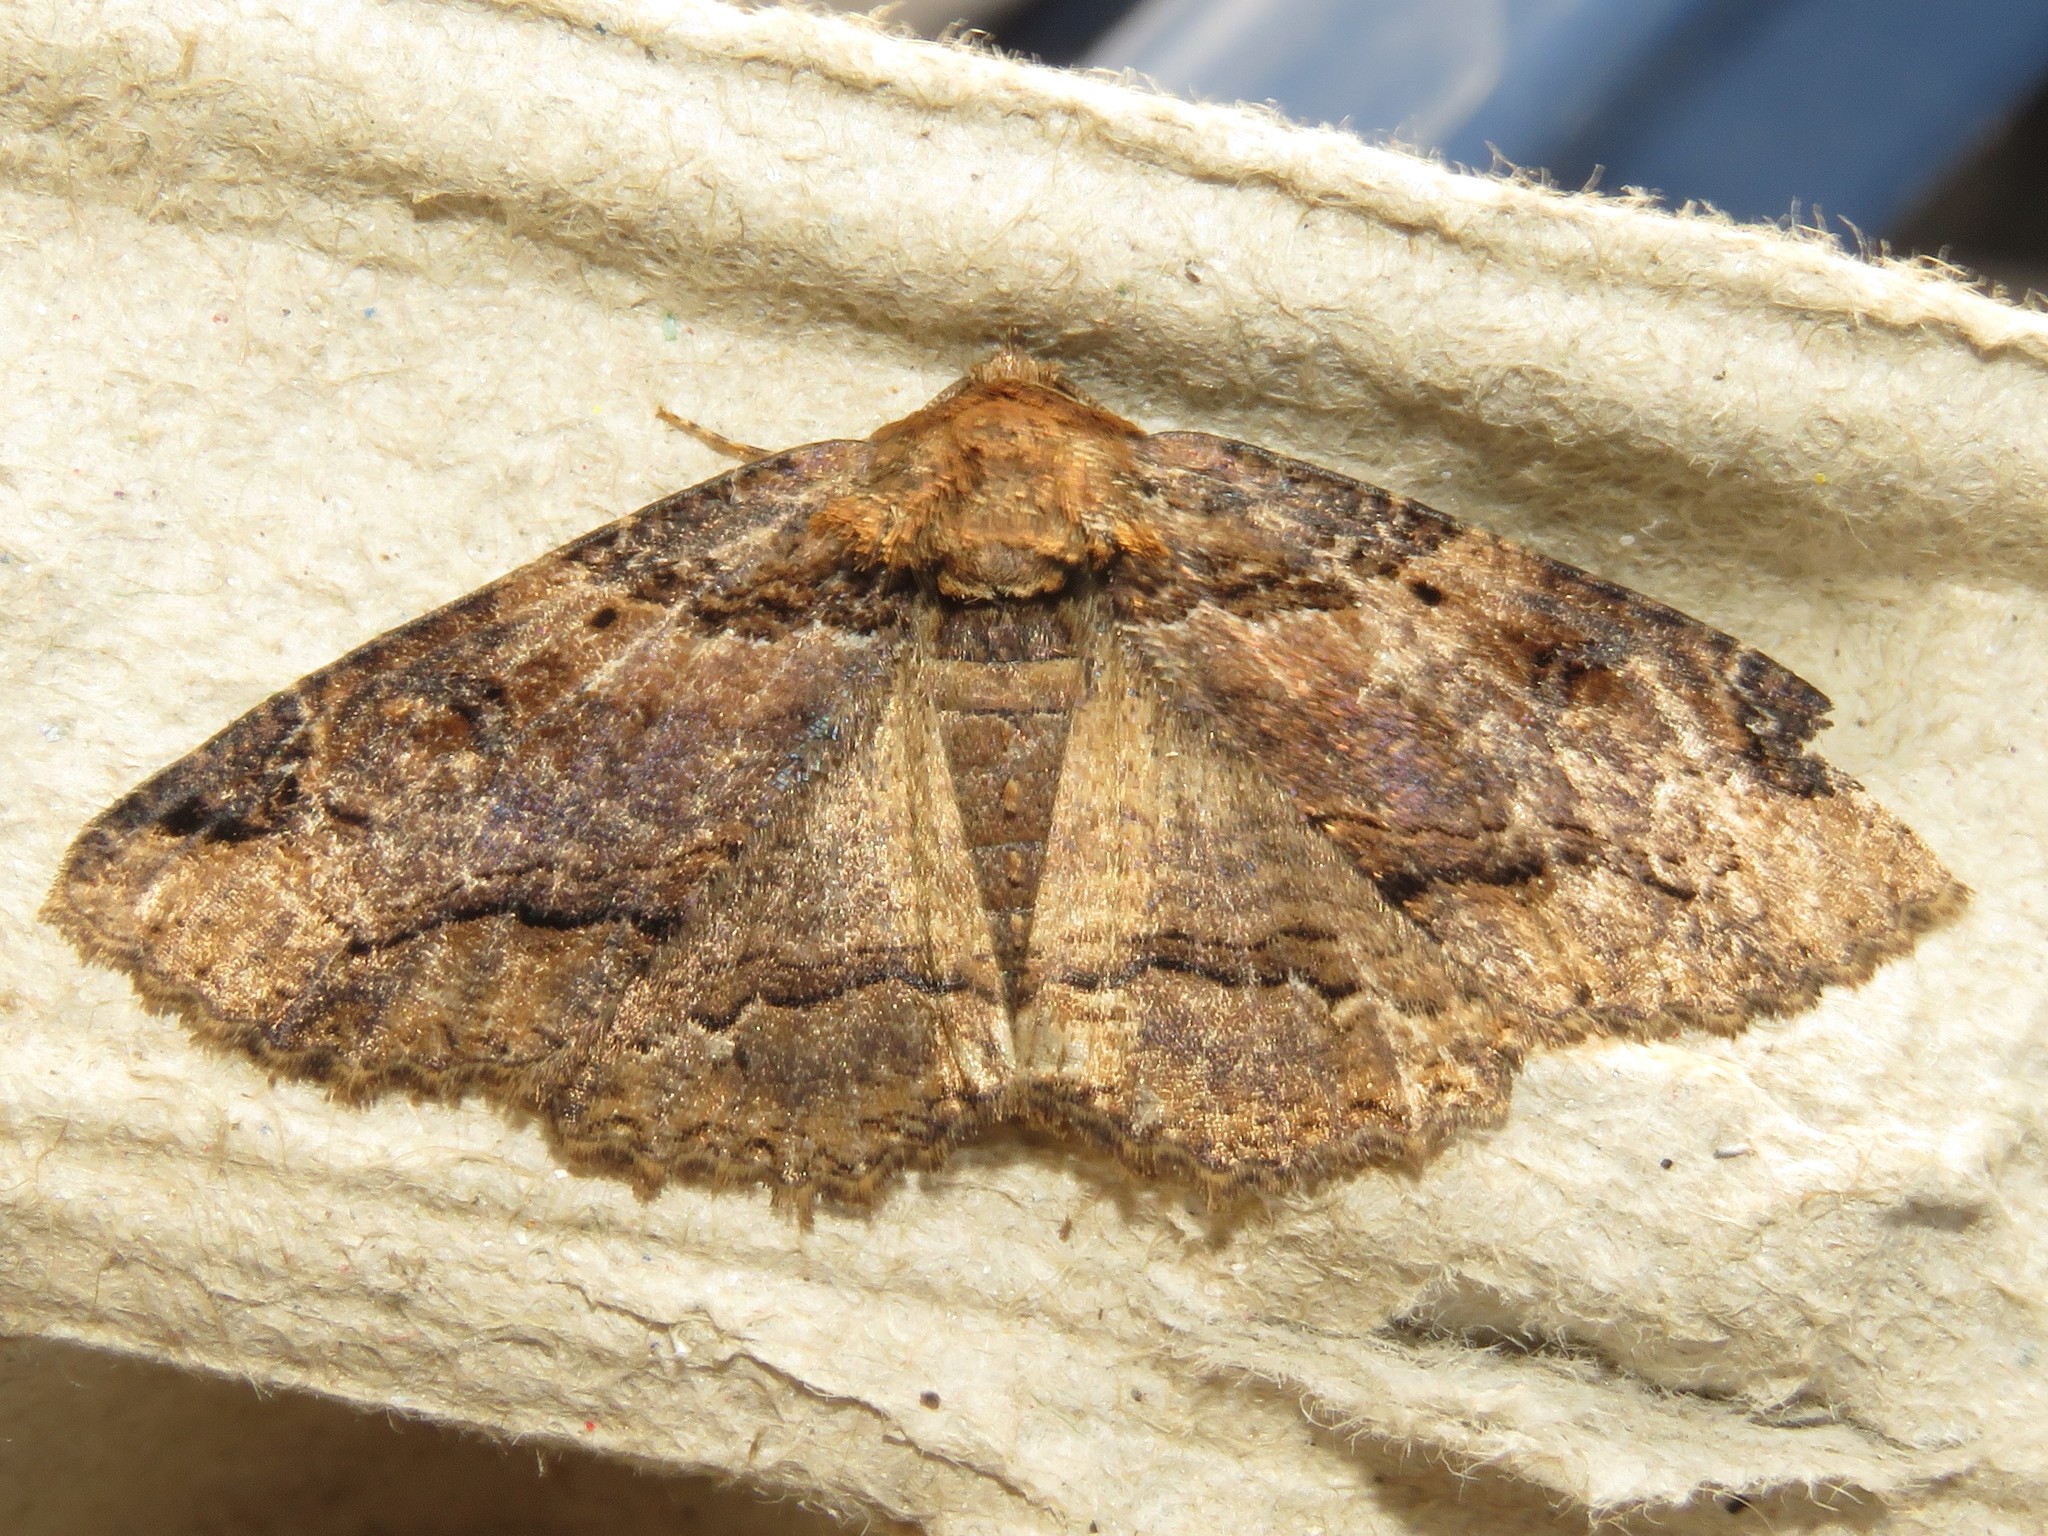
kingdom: Animalia
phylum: Arthropoda
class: Insecta
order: Lepidoptera
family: Erebidae
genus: Zale
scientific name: Zale minerea
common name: Colorful zale moth
